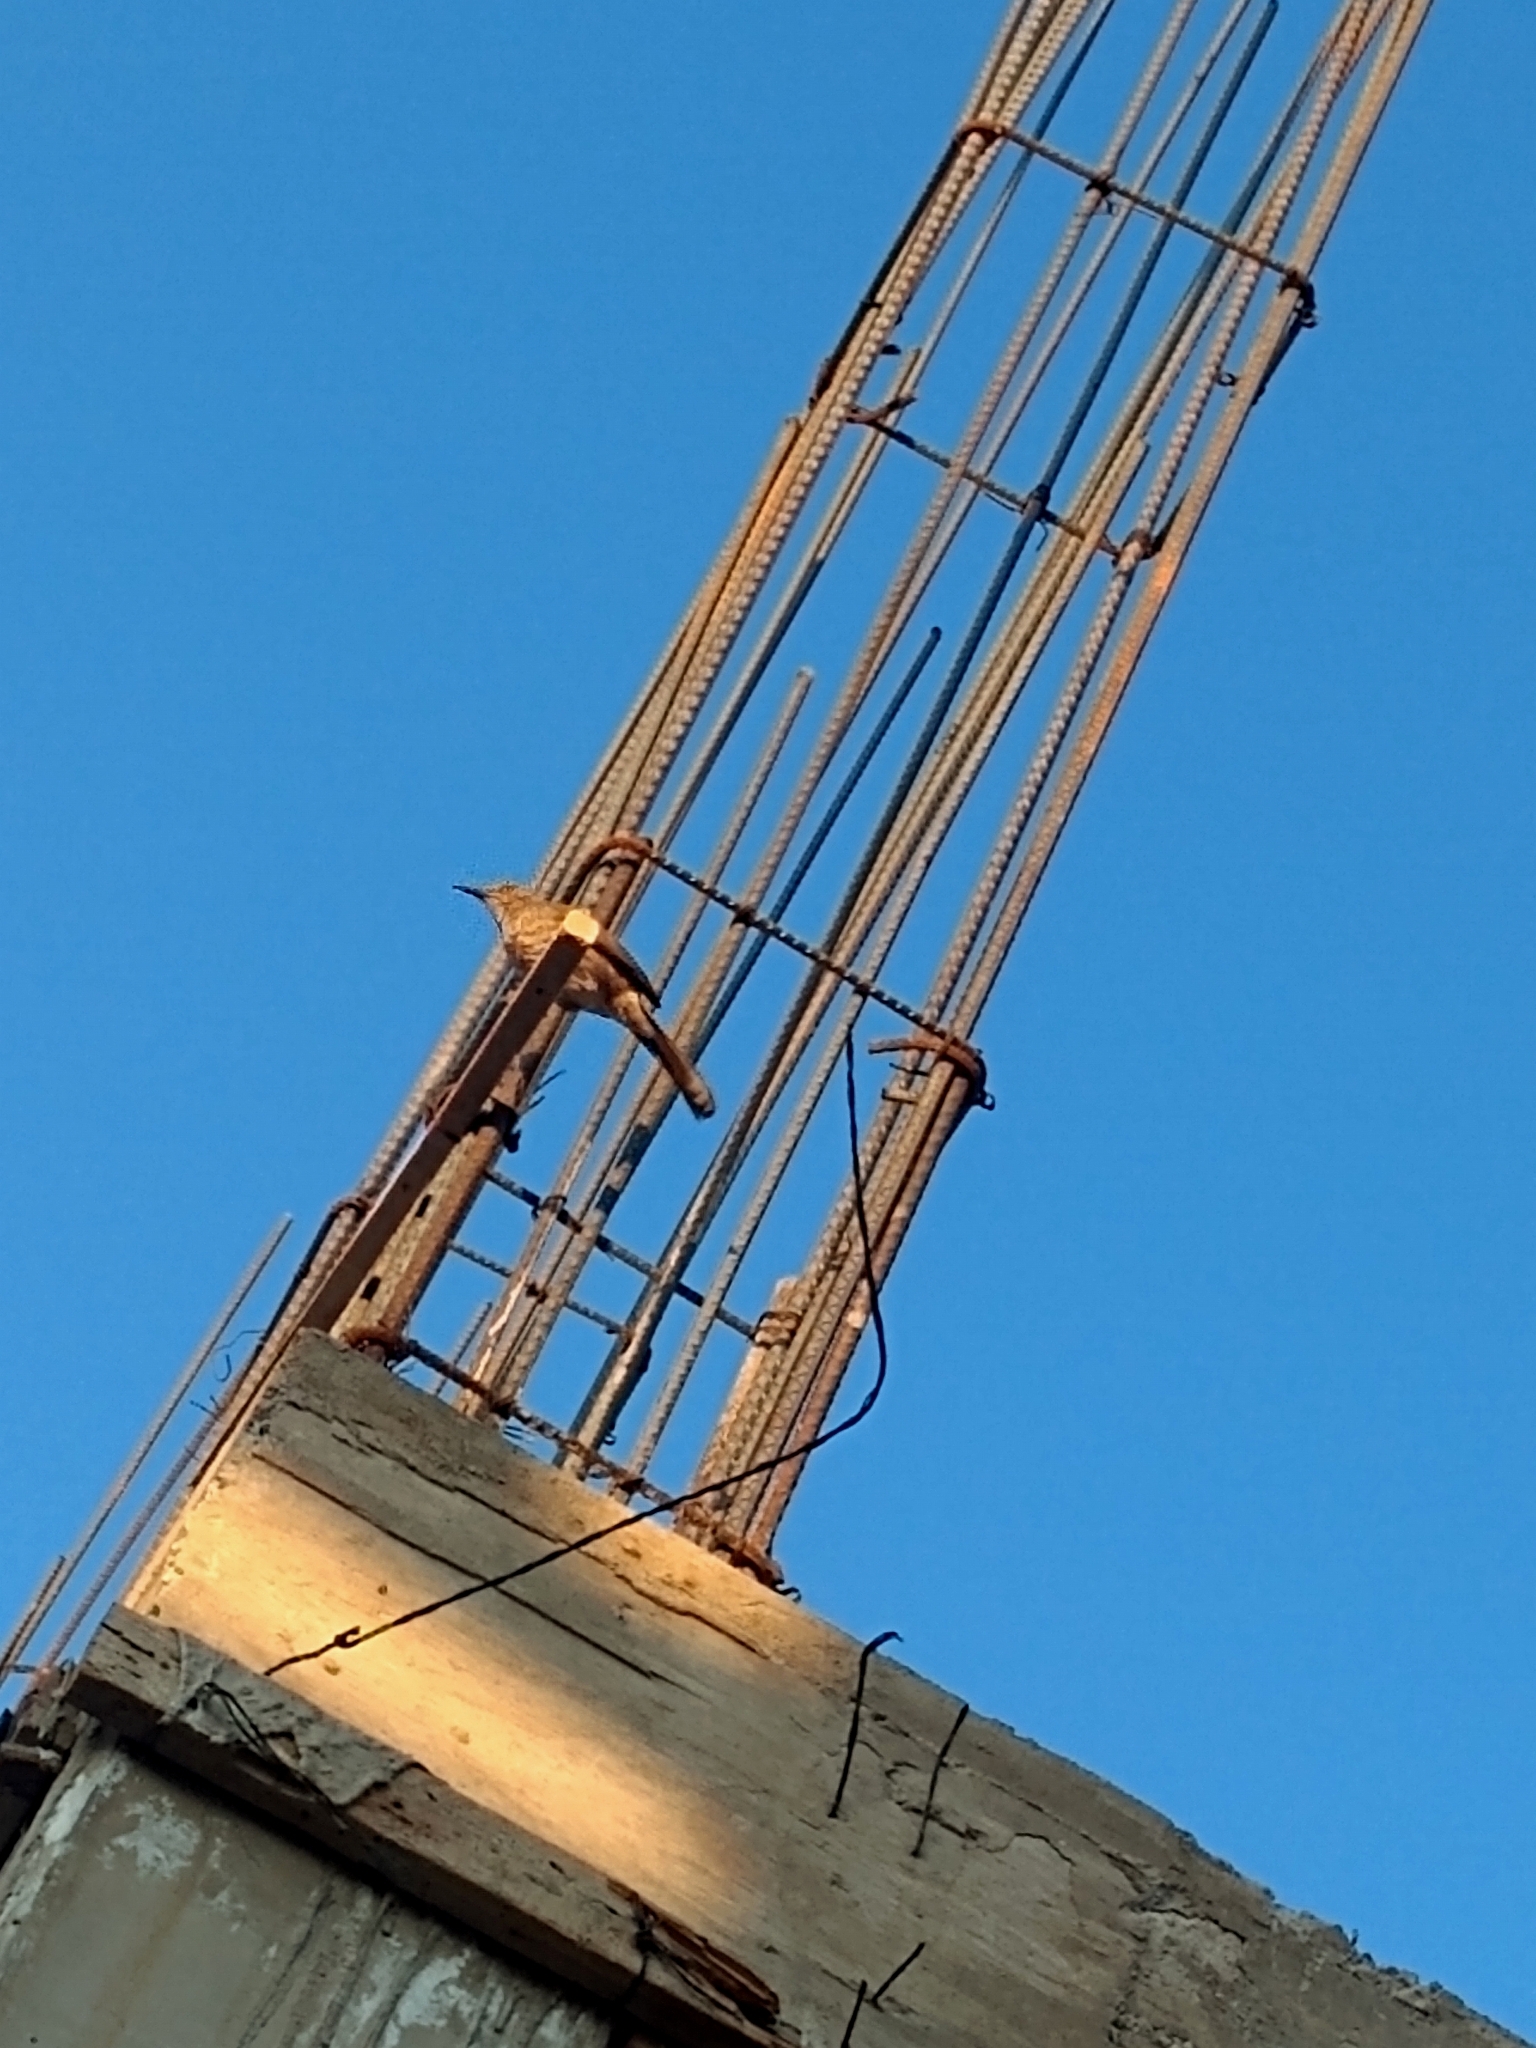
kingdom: Animalia
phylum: Chordata
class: Aves
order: Passeriformes
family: Mimidae
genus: Toxostoma
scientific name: Toxostoma curvirostre
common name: Curve-billed thrasher
